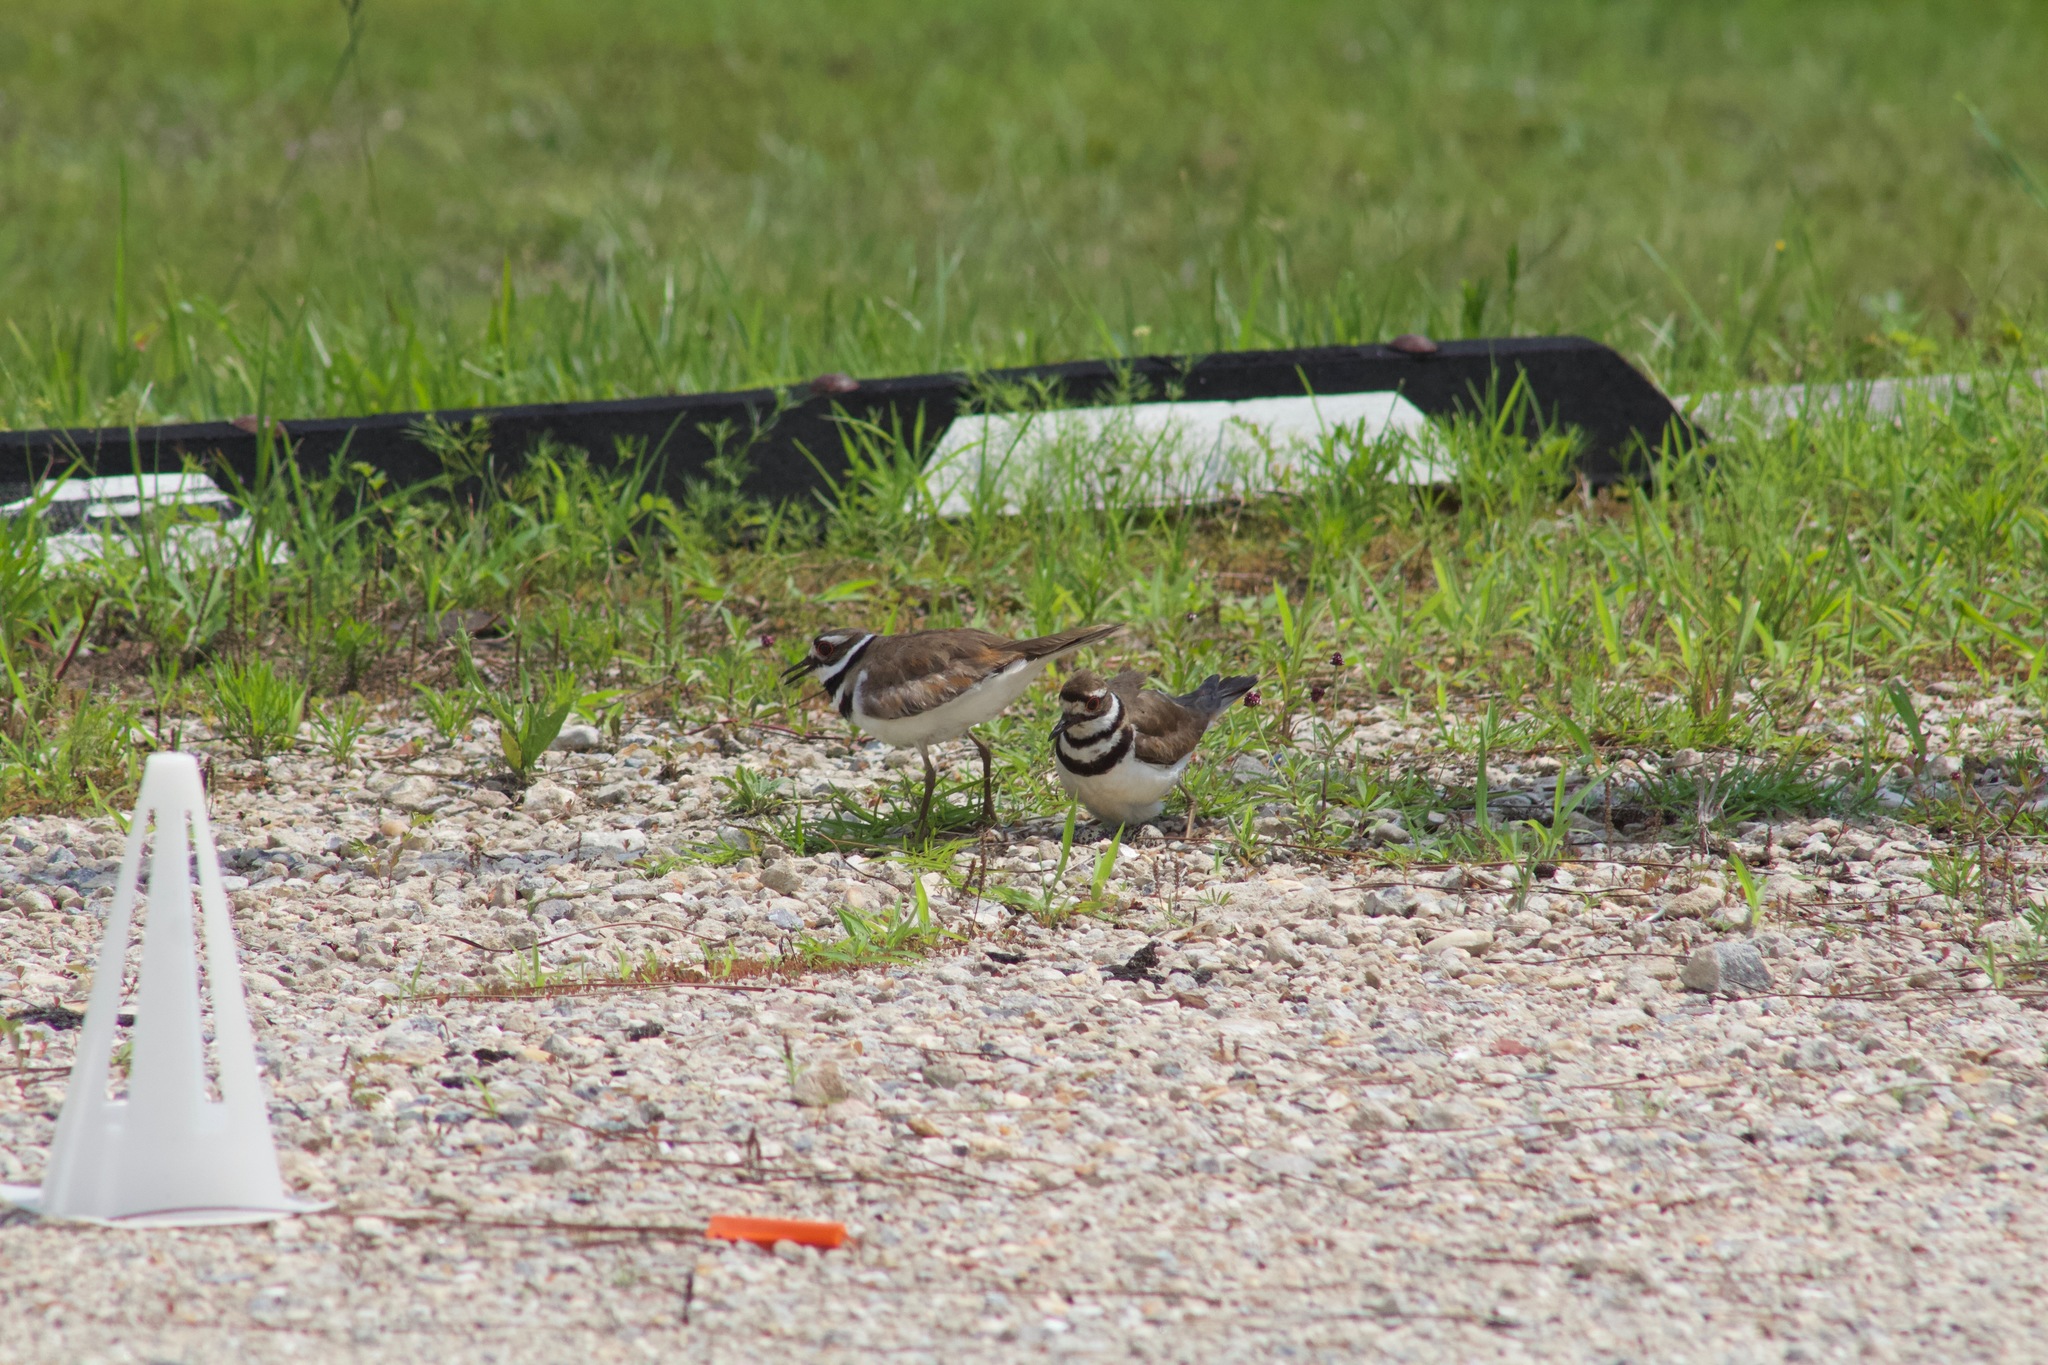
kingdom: Animalia
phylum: Chordata
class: Aves
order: Charadriiformes
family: Charadriidae
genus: Charadrius
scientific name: Charadrius vociferus
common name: Killdeer
